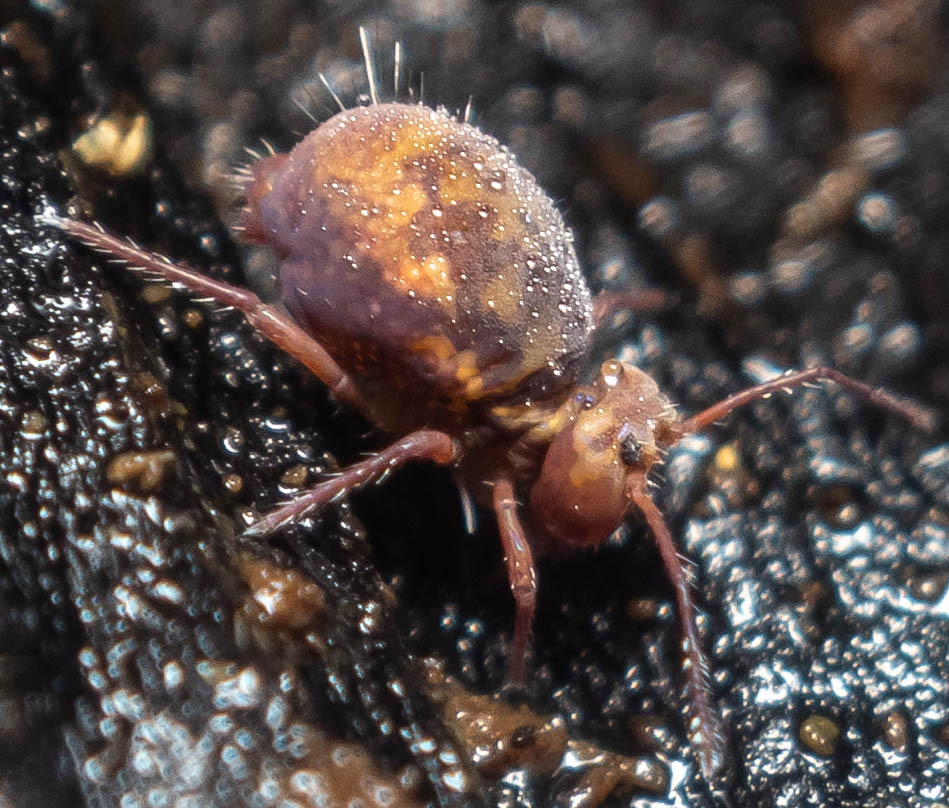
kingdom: Animalia
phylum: Arthropoda
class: Collembola
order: Symphypleona
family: Dicyrtomidae
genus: Dicyrtoma
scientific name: Dicyrtoma fusca
